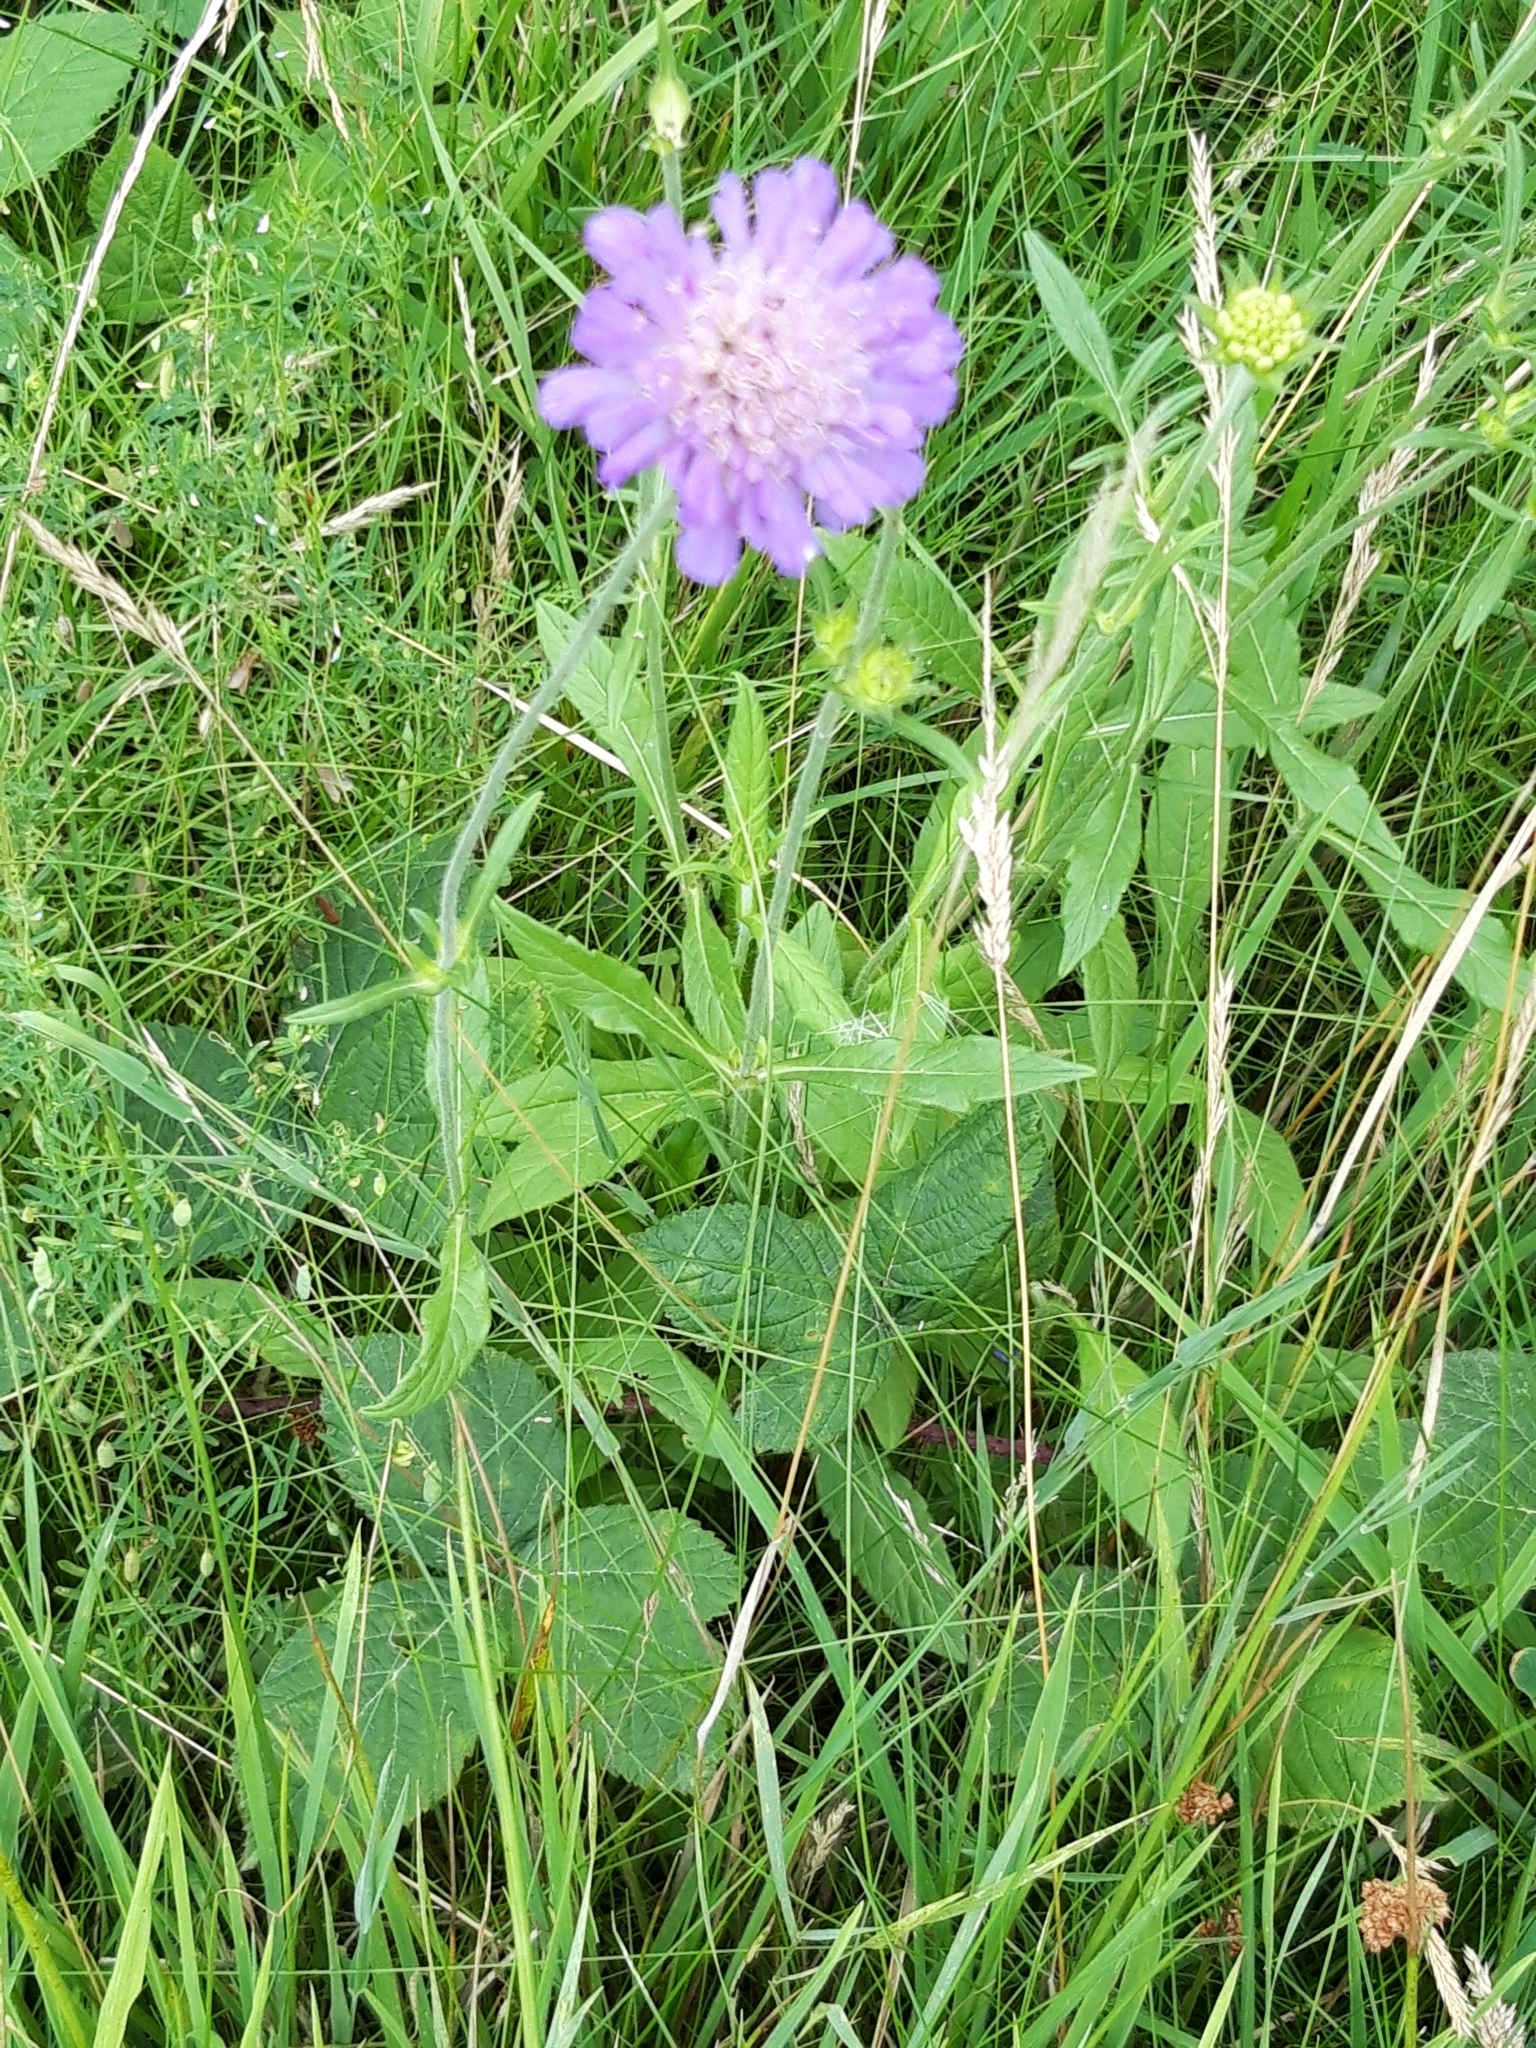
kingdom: Plantae
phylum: Tracheophyta
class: Magnoliopsida
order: Dipsacales
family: Caprifoliaceae
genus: Knautia
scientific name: Knautia arvensis
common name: Field scabiosa
